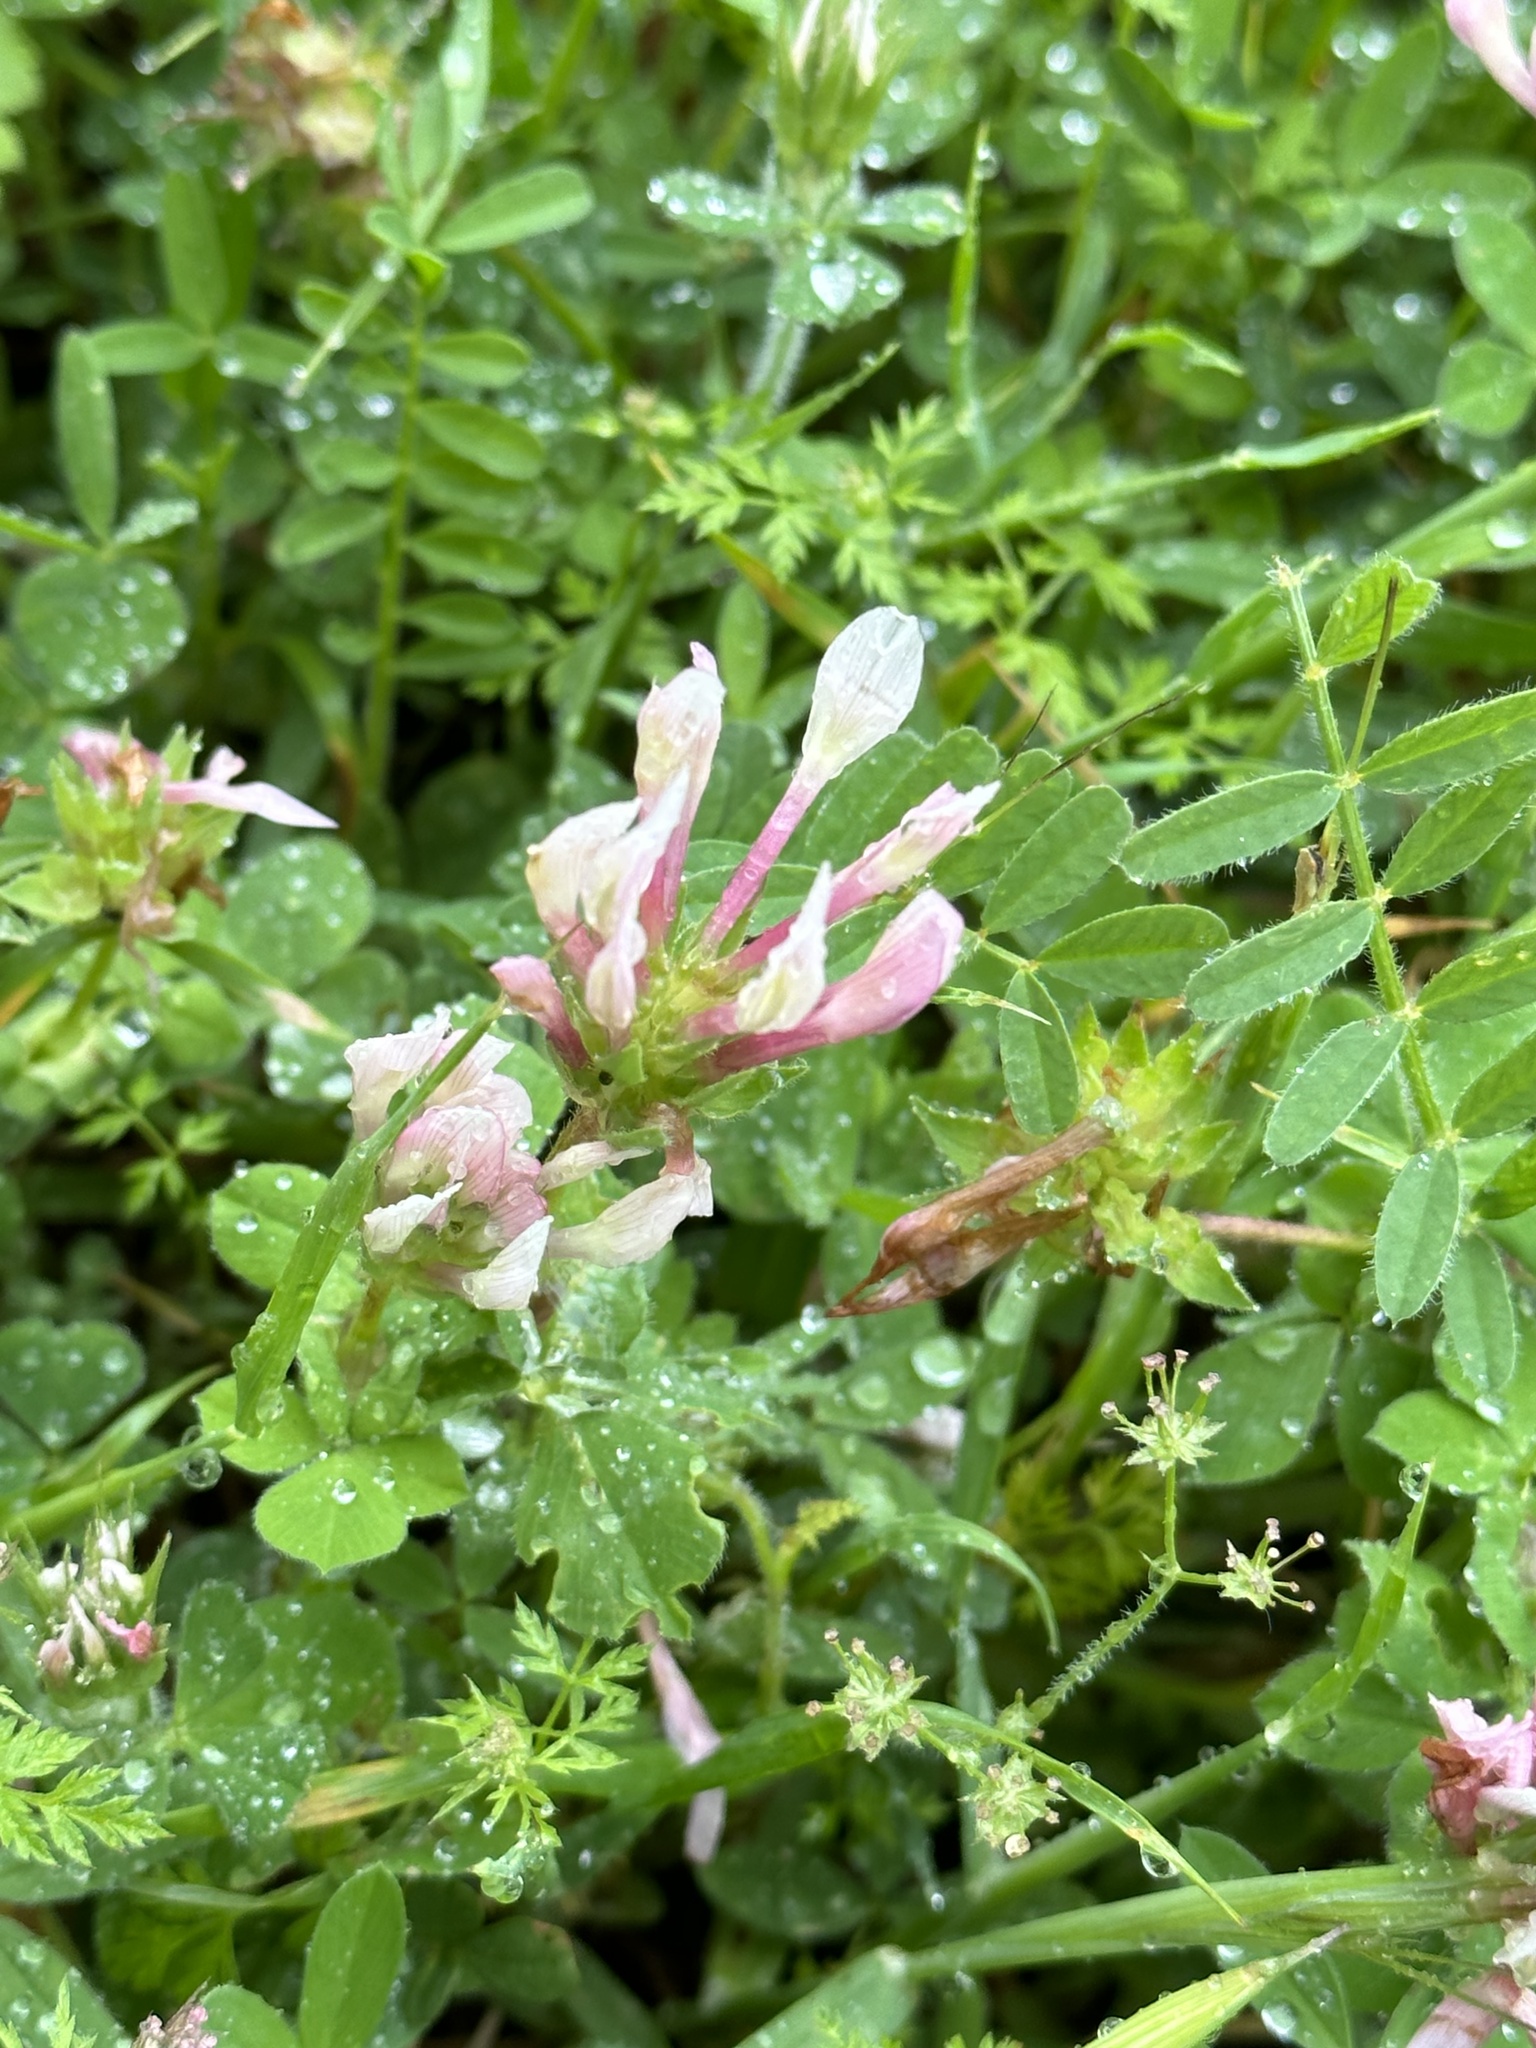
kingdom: Plantae
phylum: Tracheophyta
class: Magnoliopsida
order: Fabales
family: Fabaceae
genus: Trifolium
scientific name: Trifolium clypeatum
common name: Shield clover
